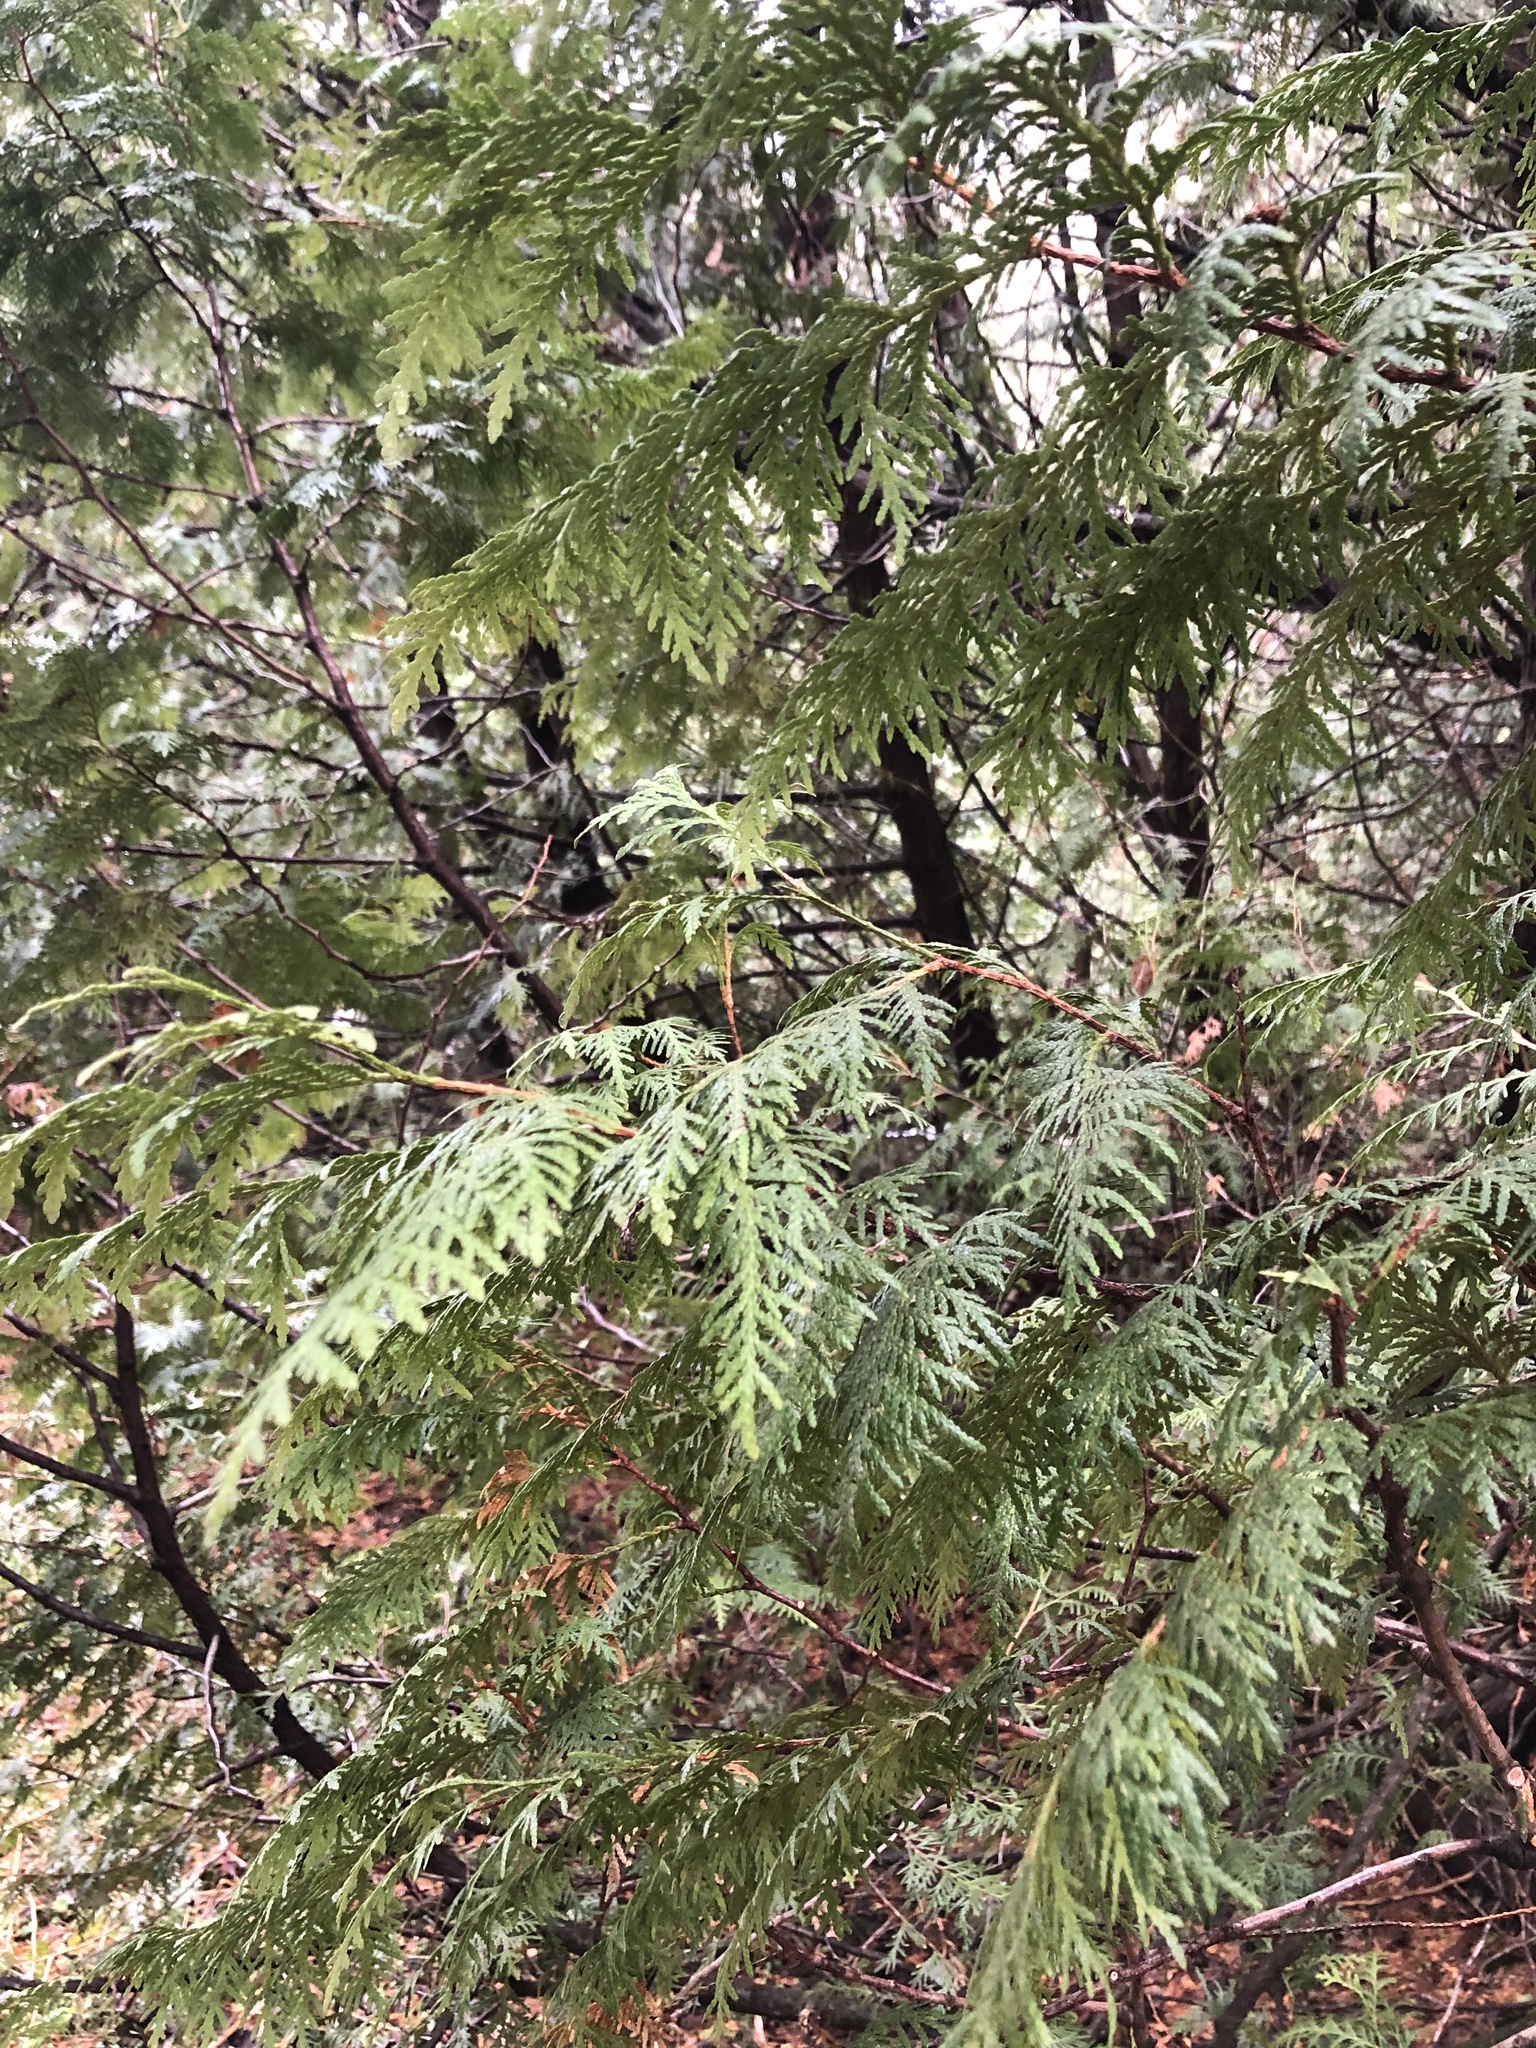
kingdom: Plantae
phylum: Tracheophyta
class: Pinopsida
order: Pinales
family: Cupressaceae
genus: Thuja
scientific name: Thuja occidentalis
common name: Northern white-cedar
